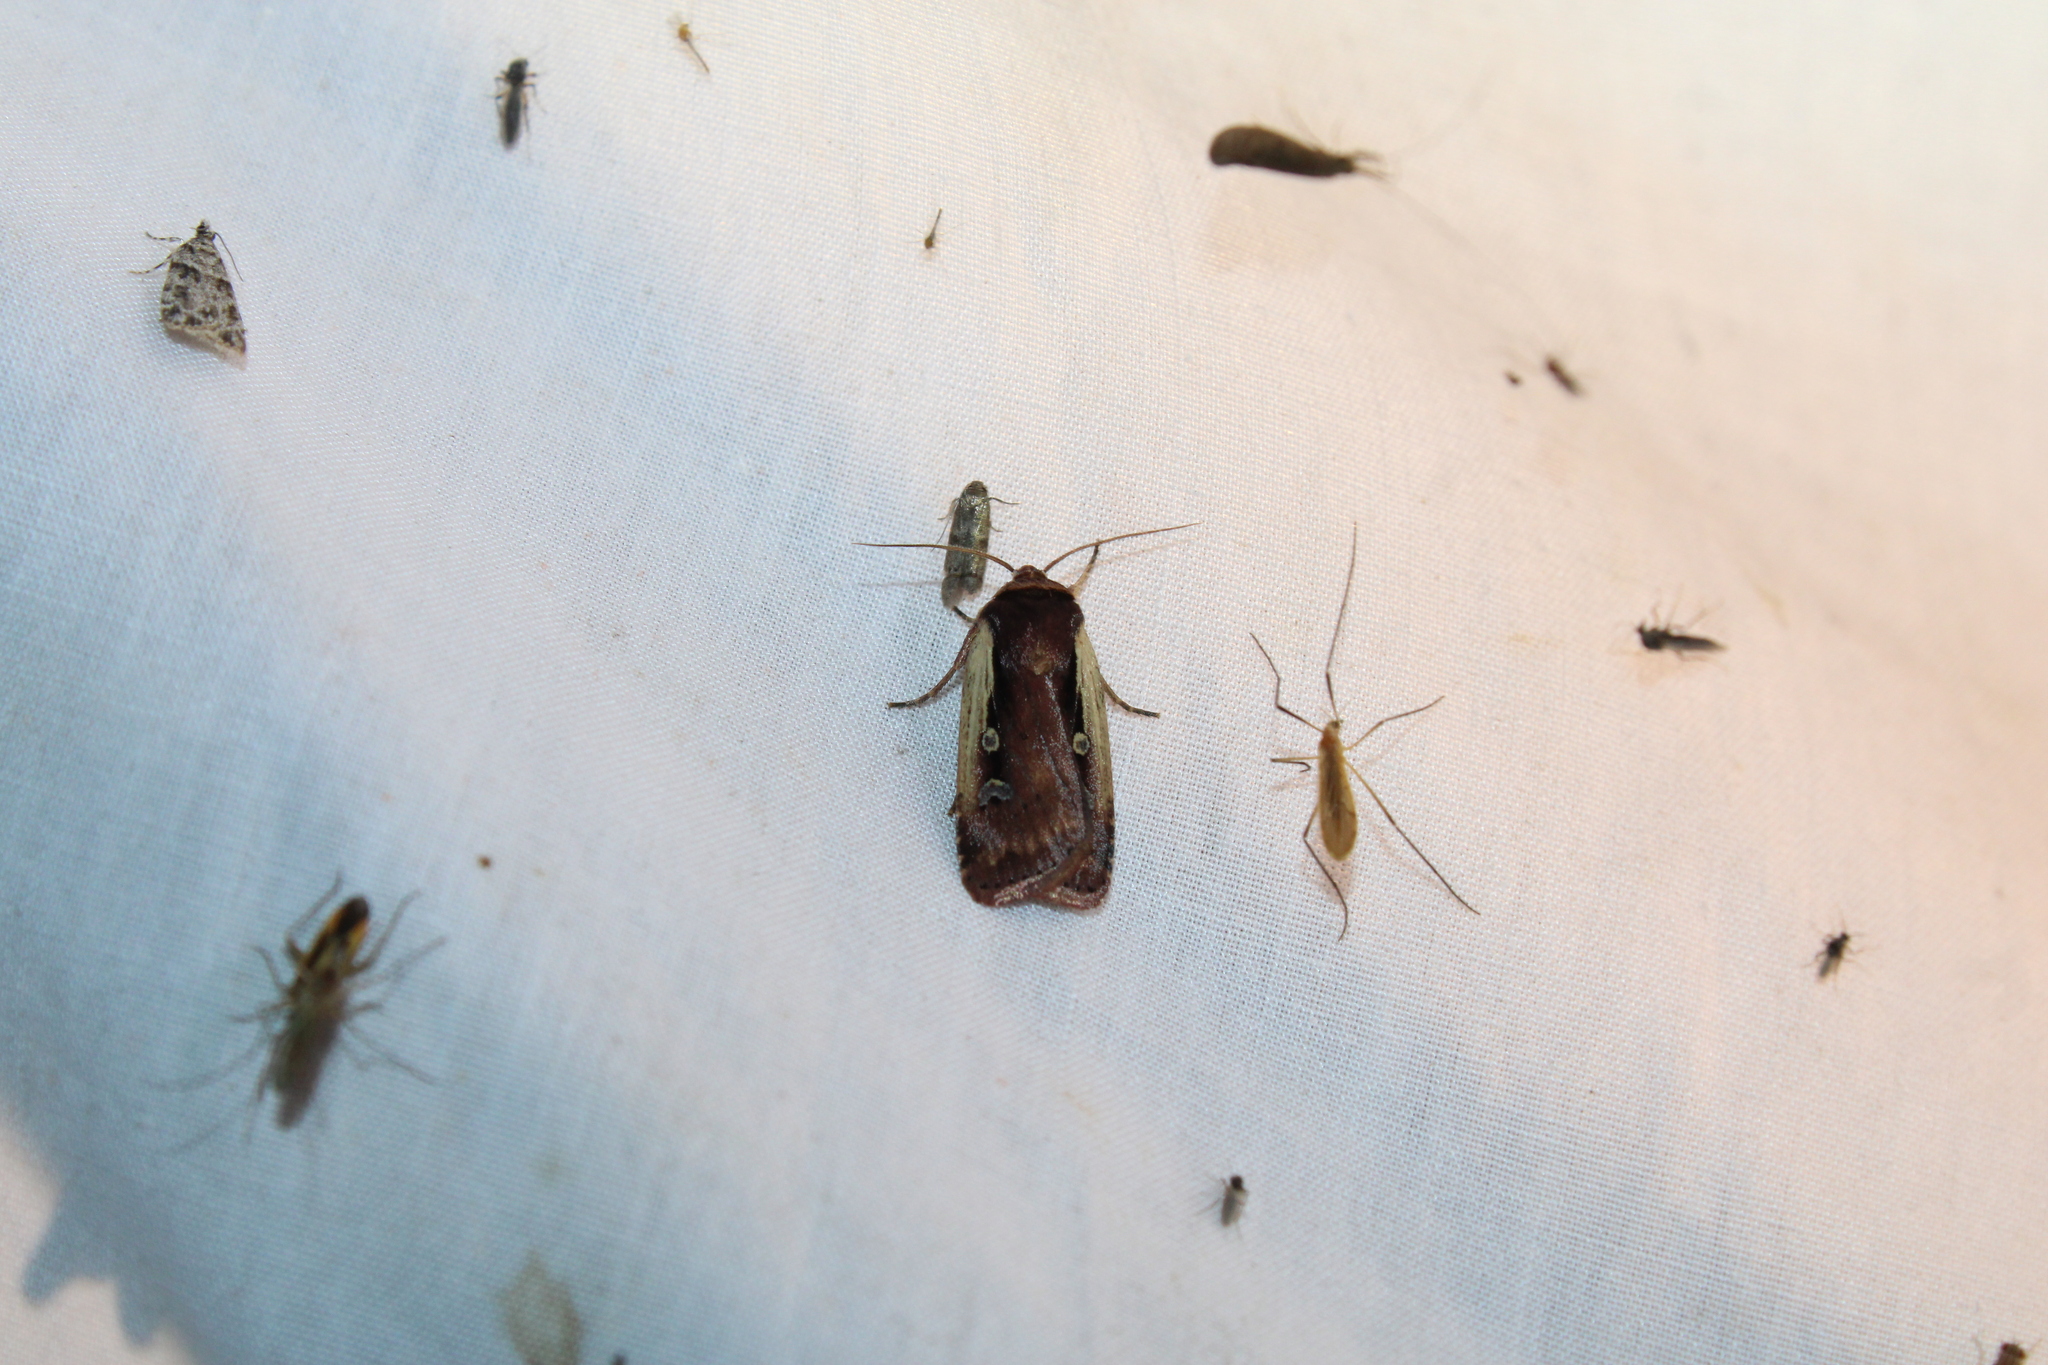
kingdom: Animalia
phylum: Arthropoda
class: Insecta
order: Lepidoptera
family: Noctuidae
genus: Ochropleura
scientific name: Ochropleura implecta
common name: Flame-shouldered dart
